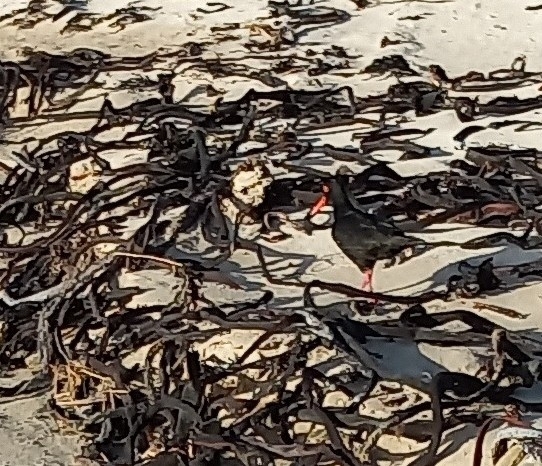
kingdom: Animalia
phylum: Chordata
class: Aves
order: Charadriiformes
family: Haematopodidae
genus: Haematopus
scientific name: Haematopus moquini
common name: African oystercatcher
